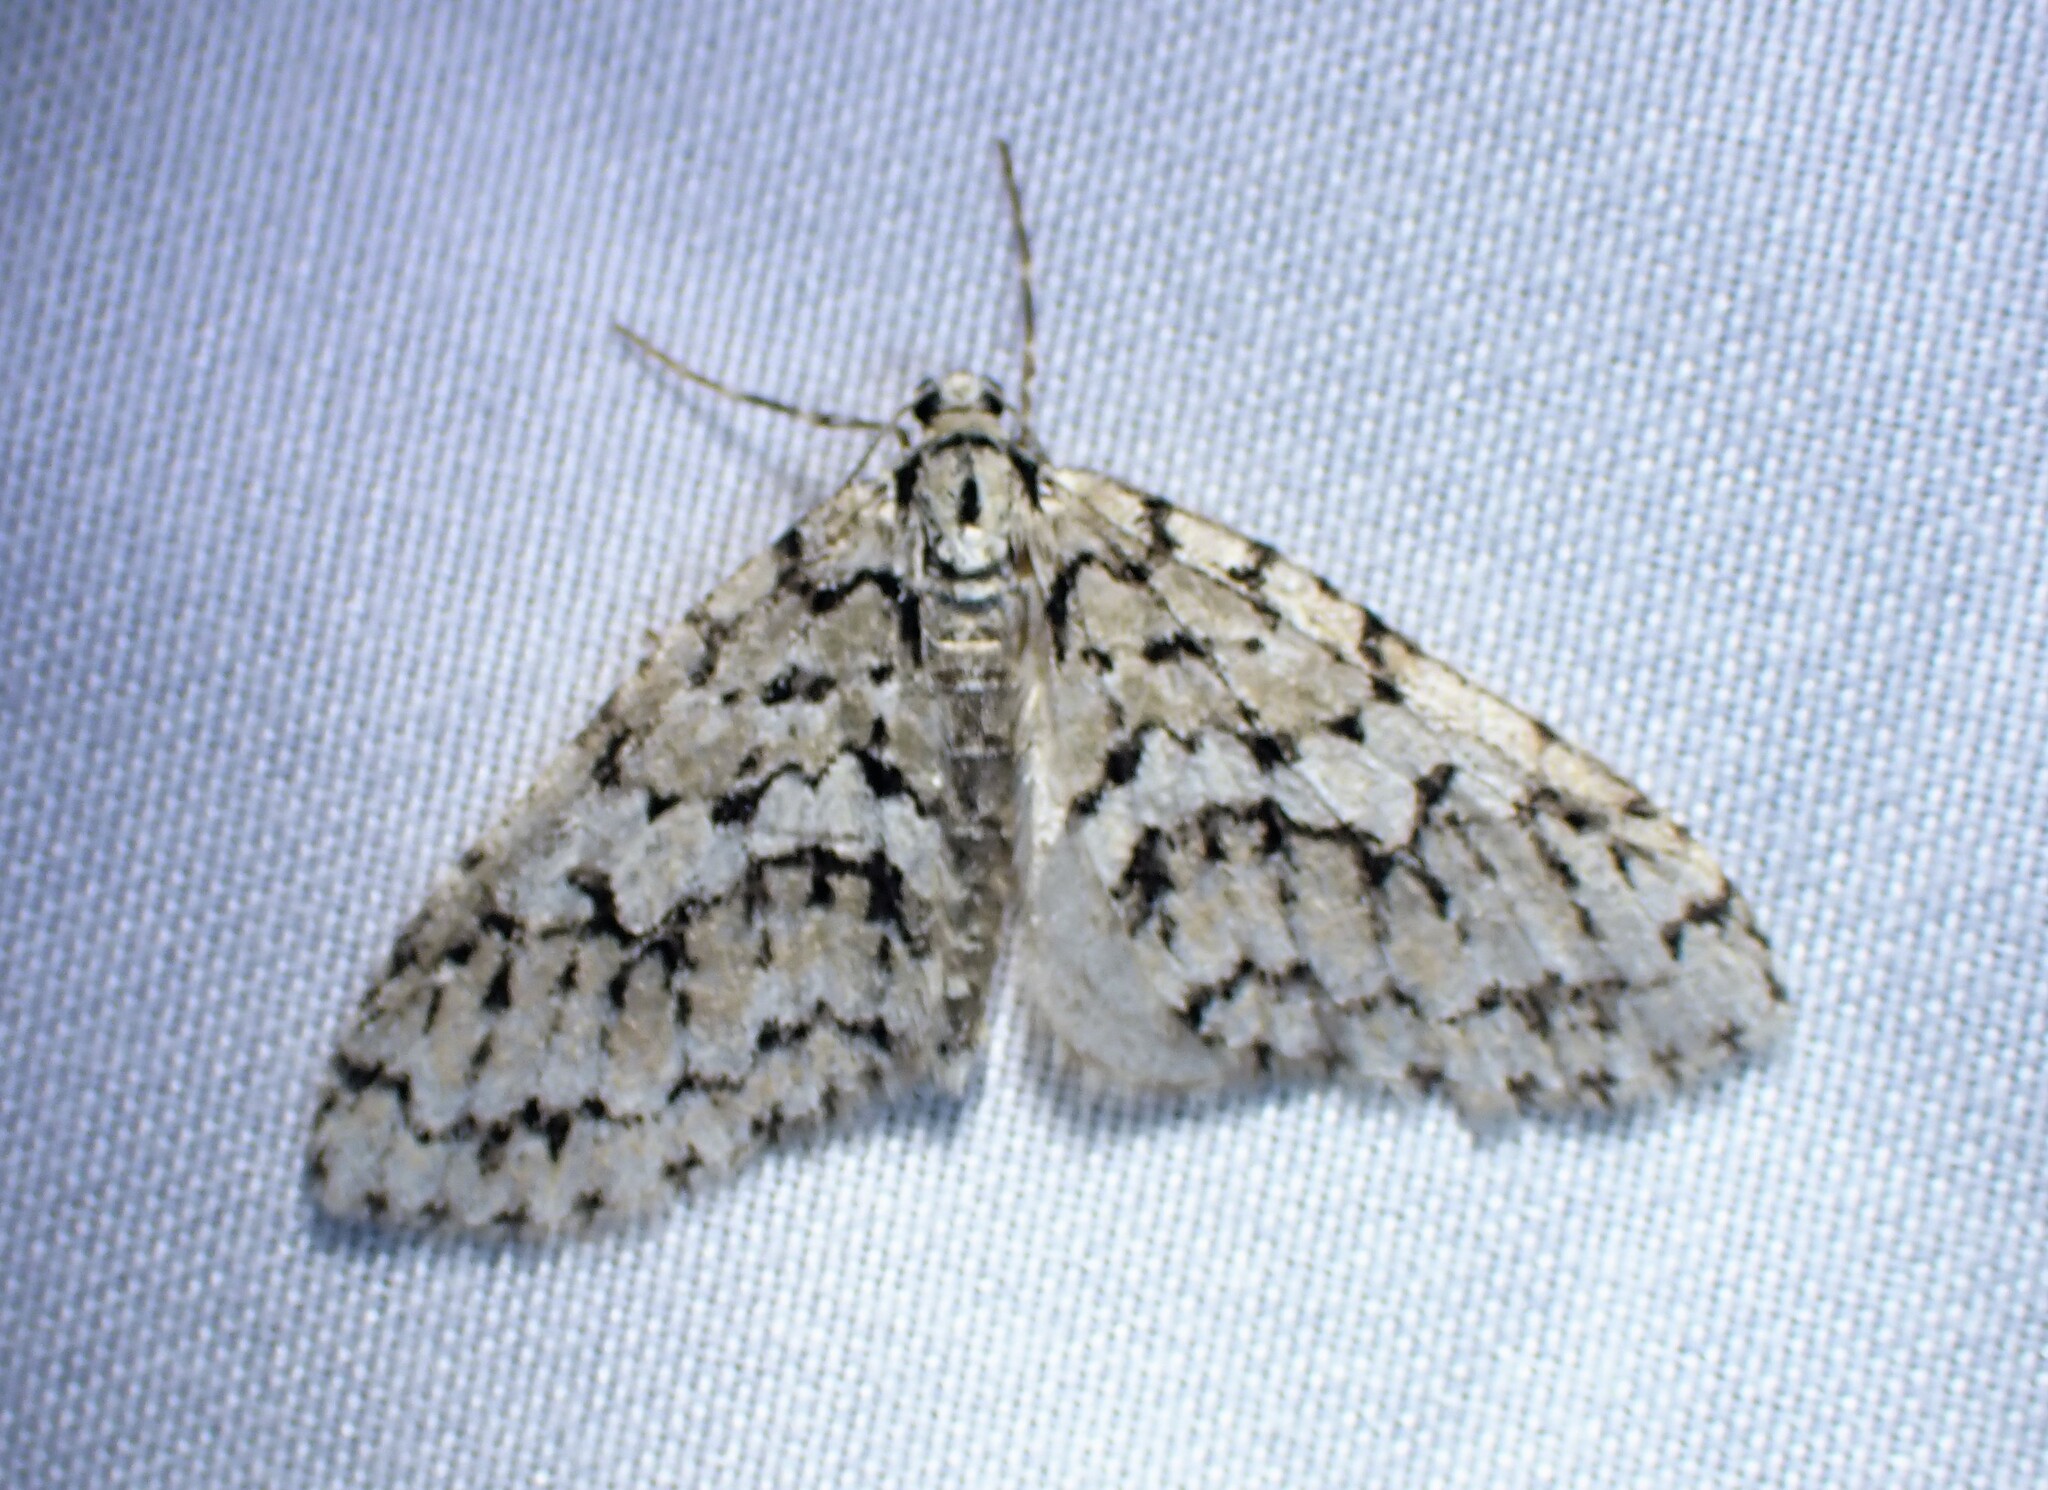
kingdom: Animalia
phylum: Arthropoda
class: Insecta
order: Lepidoptera
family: Geometridae
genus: Cladara
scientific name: Cladara atroliturata
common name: Scribbler
